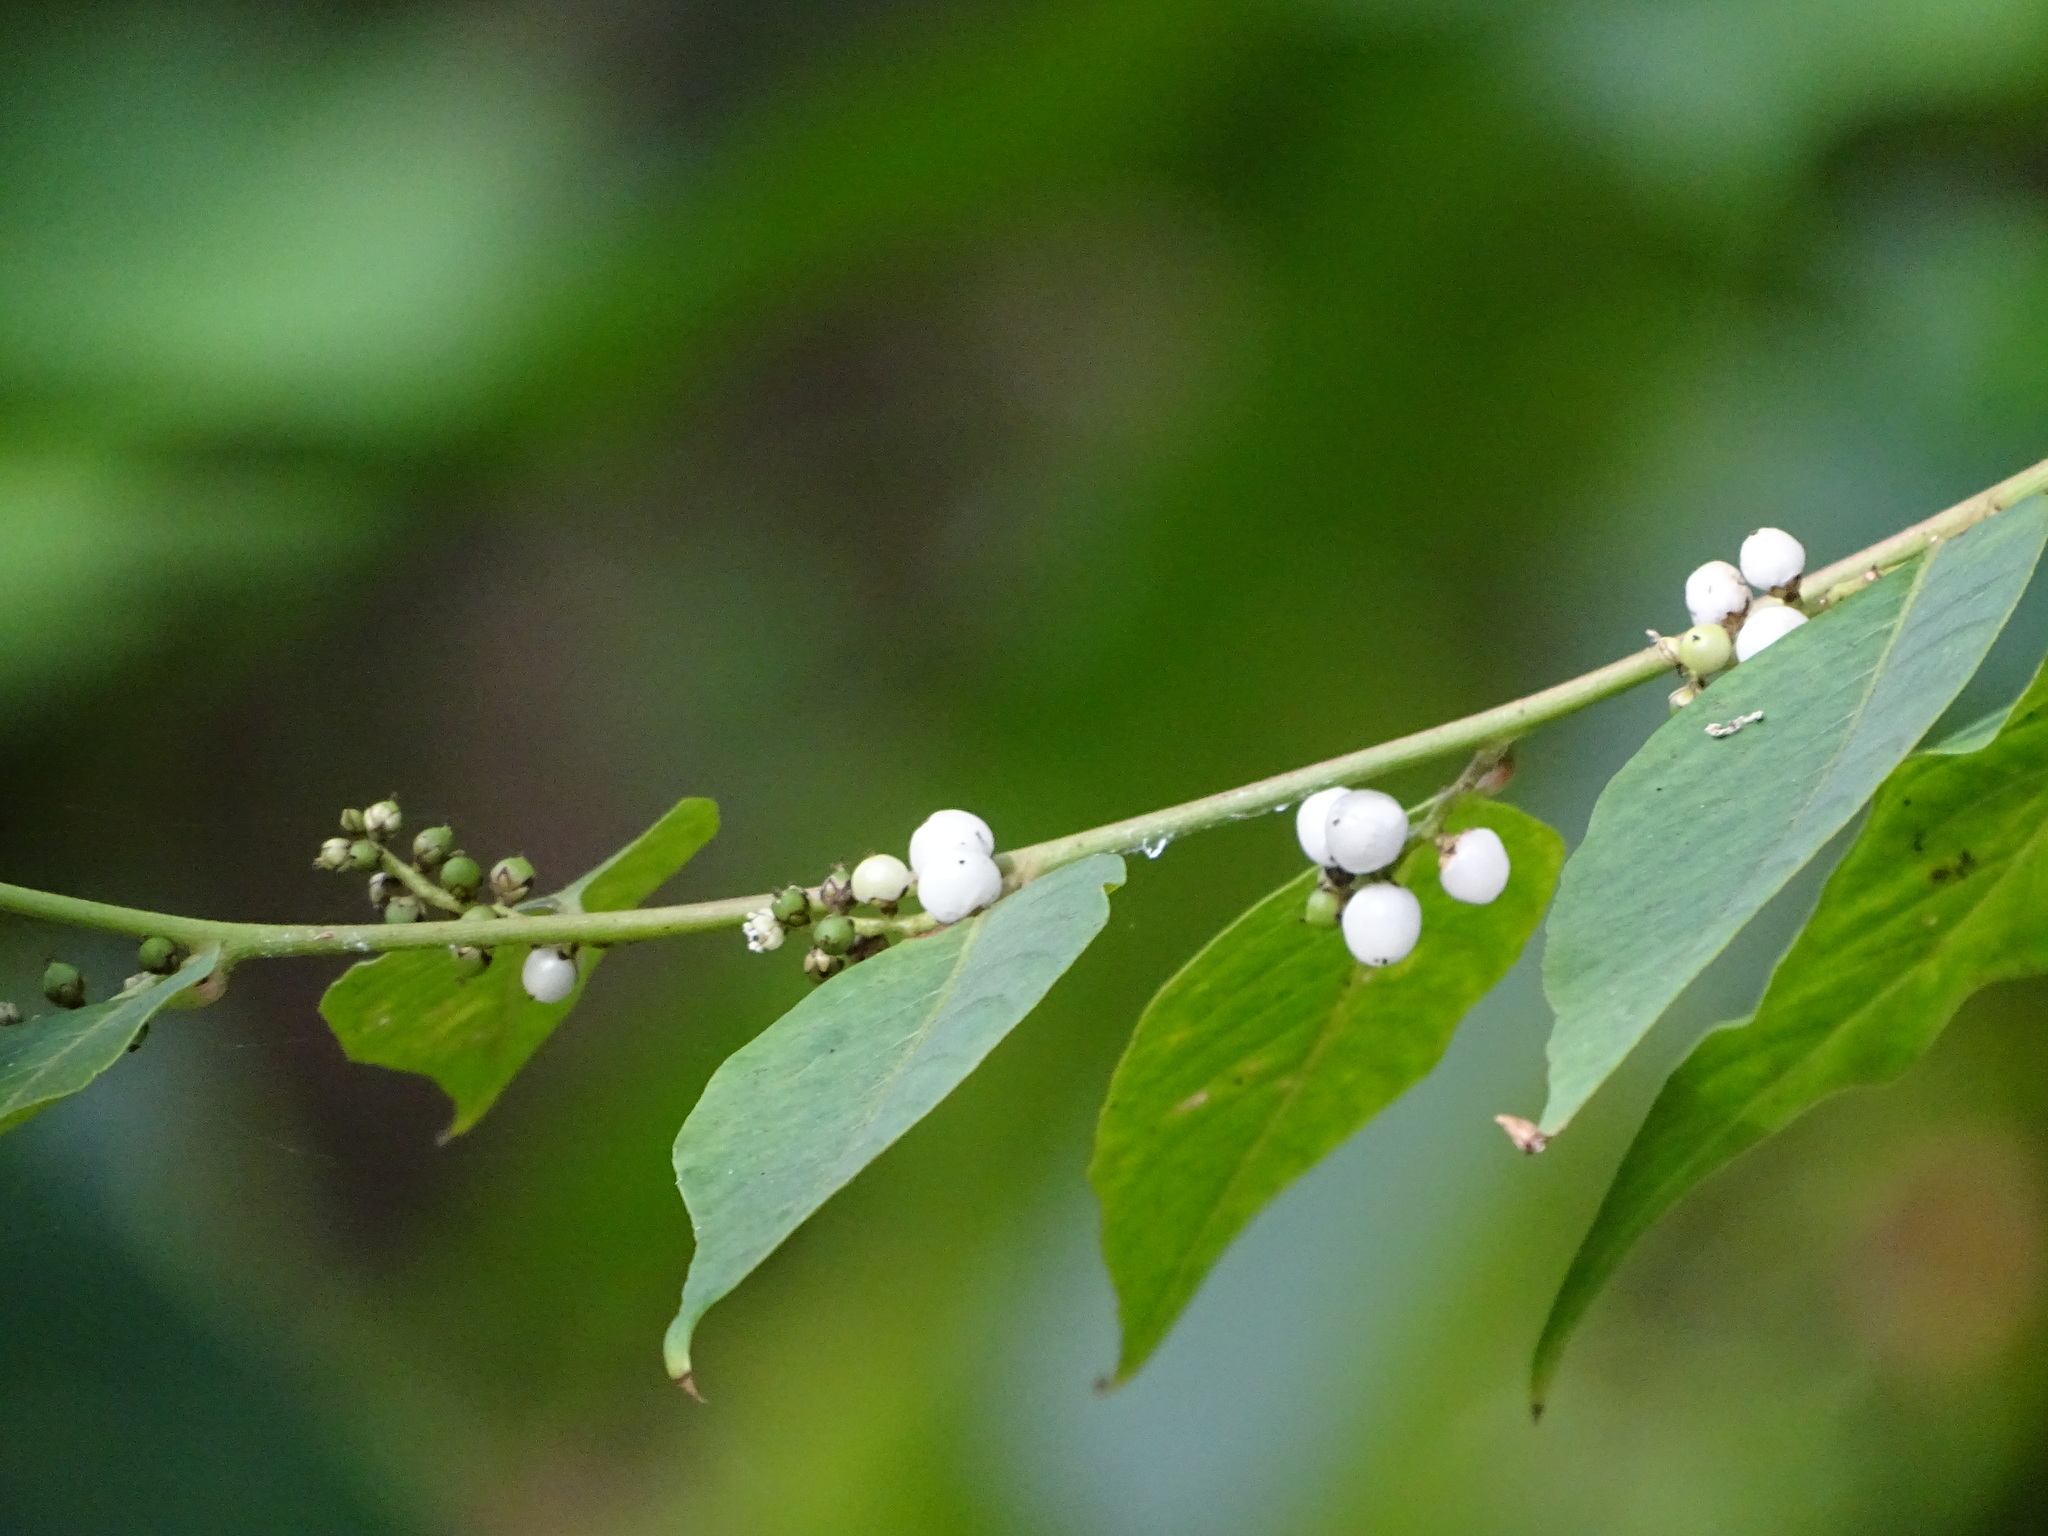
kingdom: Plantae
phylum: Tracheophyta
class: Magnoliopsida
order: Caryophyllales
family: Amaranthaceae
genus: Deeringia
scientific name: Deeringia polysperma
